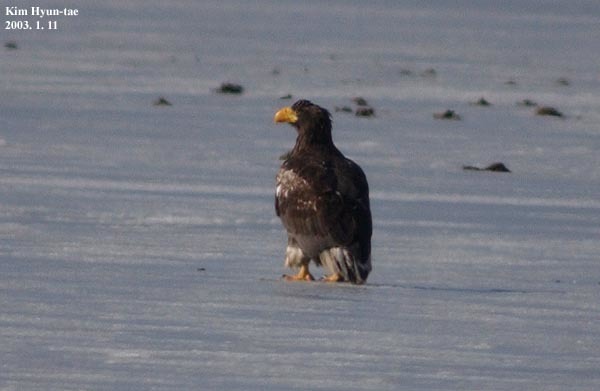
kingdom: Animalia
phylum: Chordata
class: Aves
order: Accipitriformes
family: Accipitridae
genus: Haliaeetus
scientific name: Haliaeetus pelagicus
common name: Steller's sea eagle
